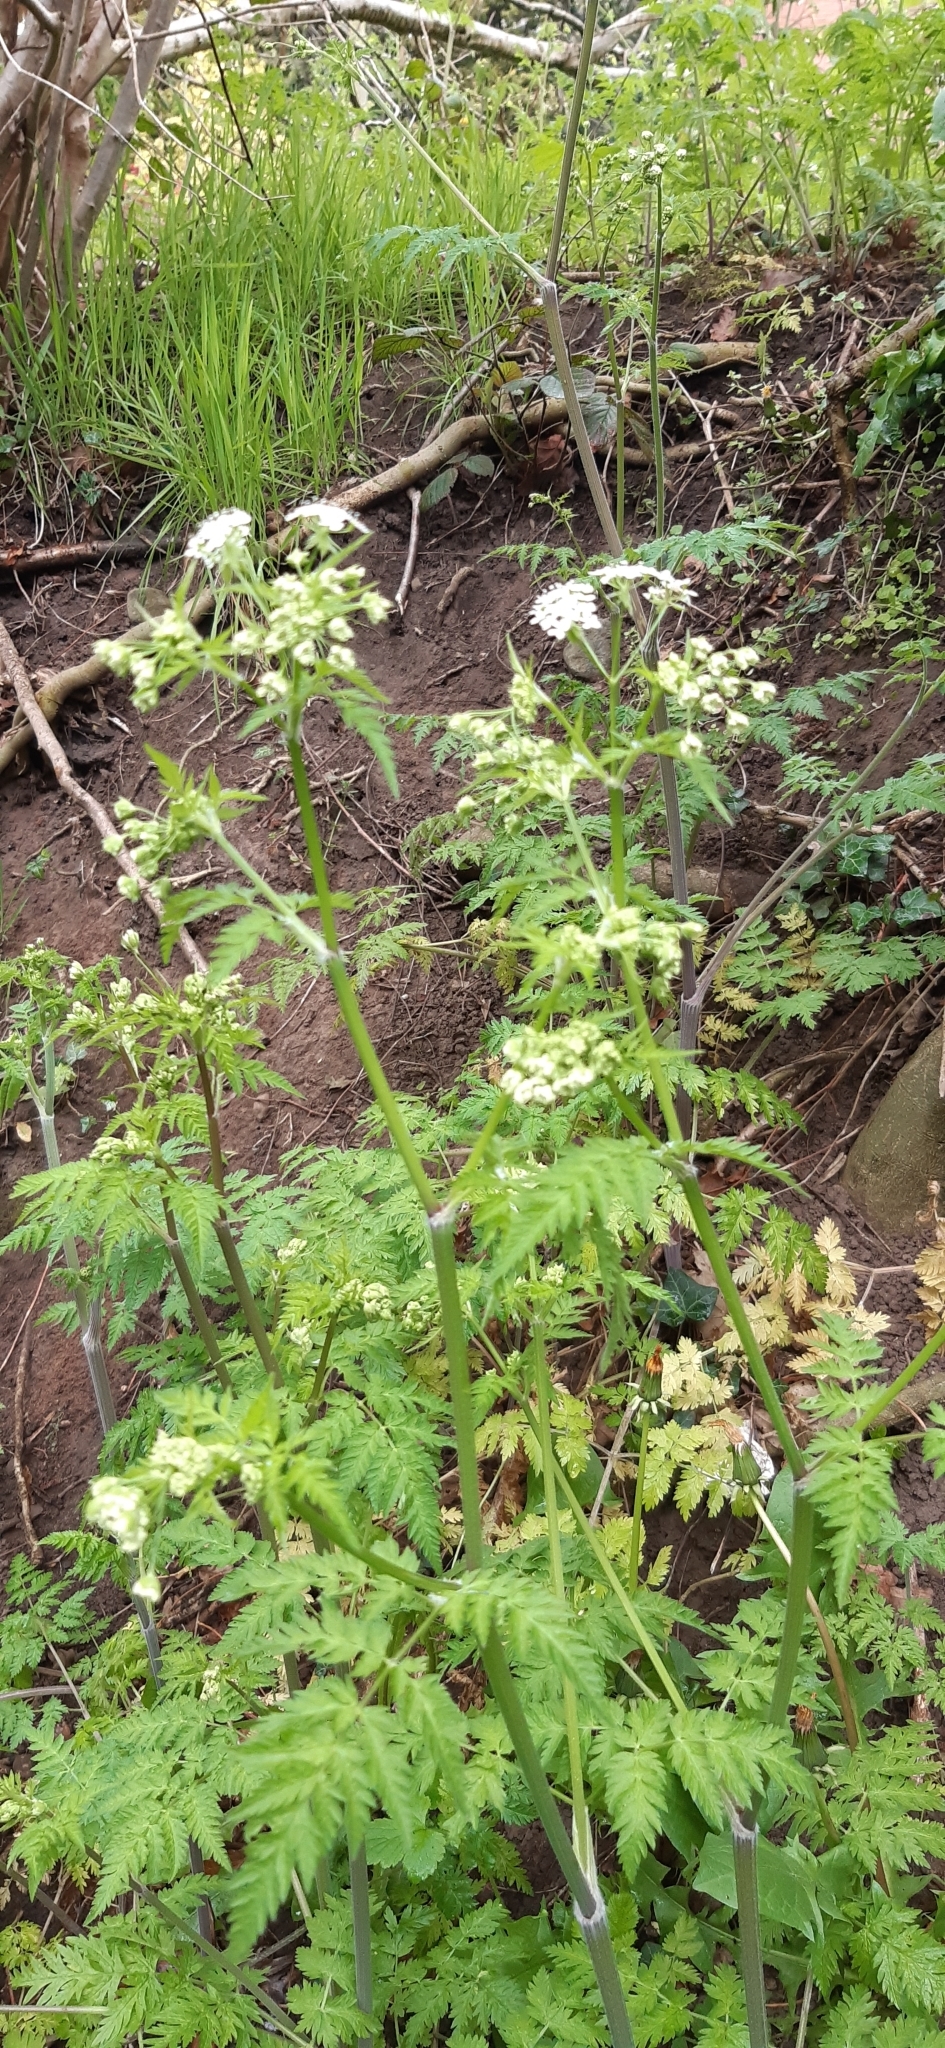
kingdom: Plantae
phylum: Tracheophyta
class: Magnoliopsida
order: Apiales
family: Apiaceae
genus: Anthriscus
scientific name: Anthriscus sylvestris
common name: Cow parsley
